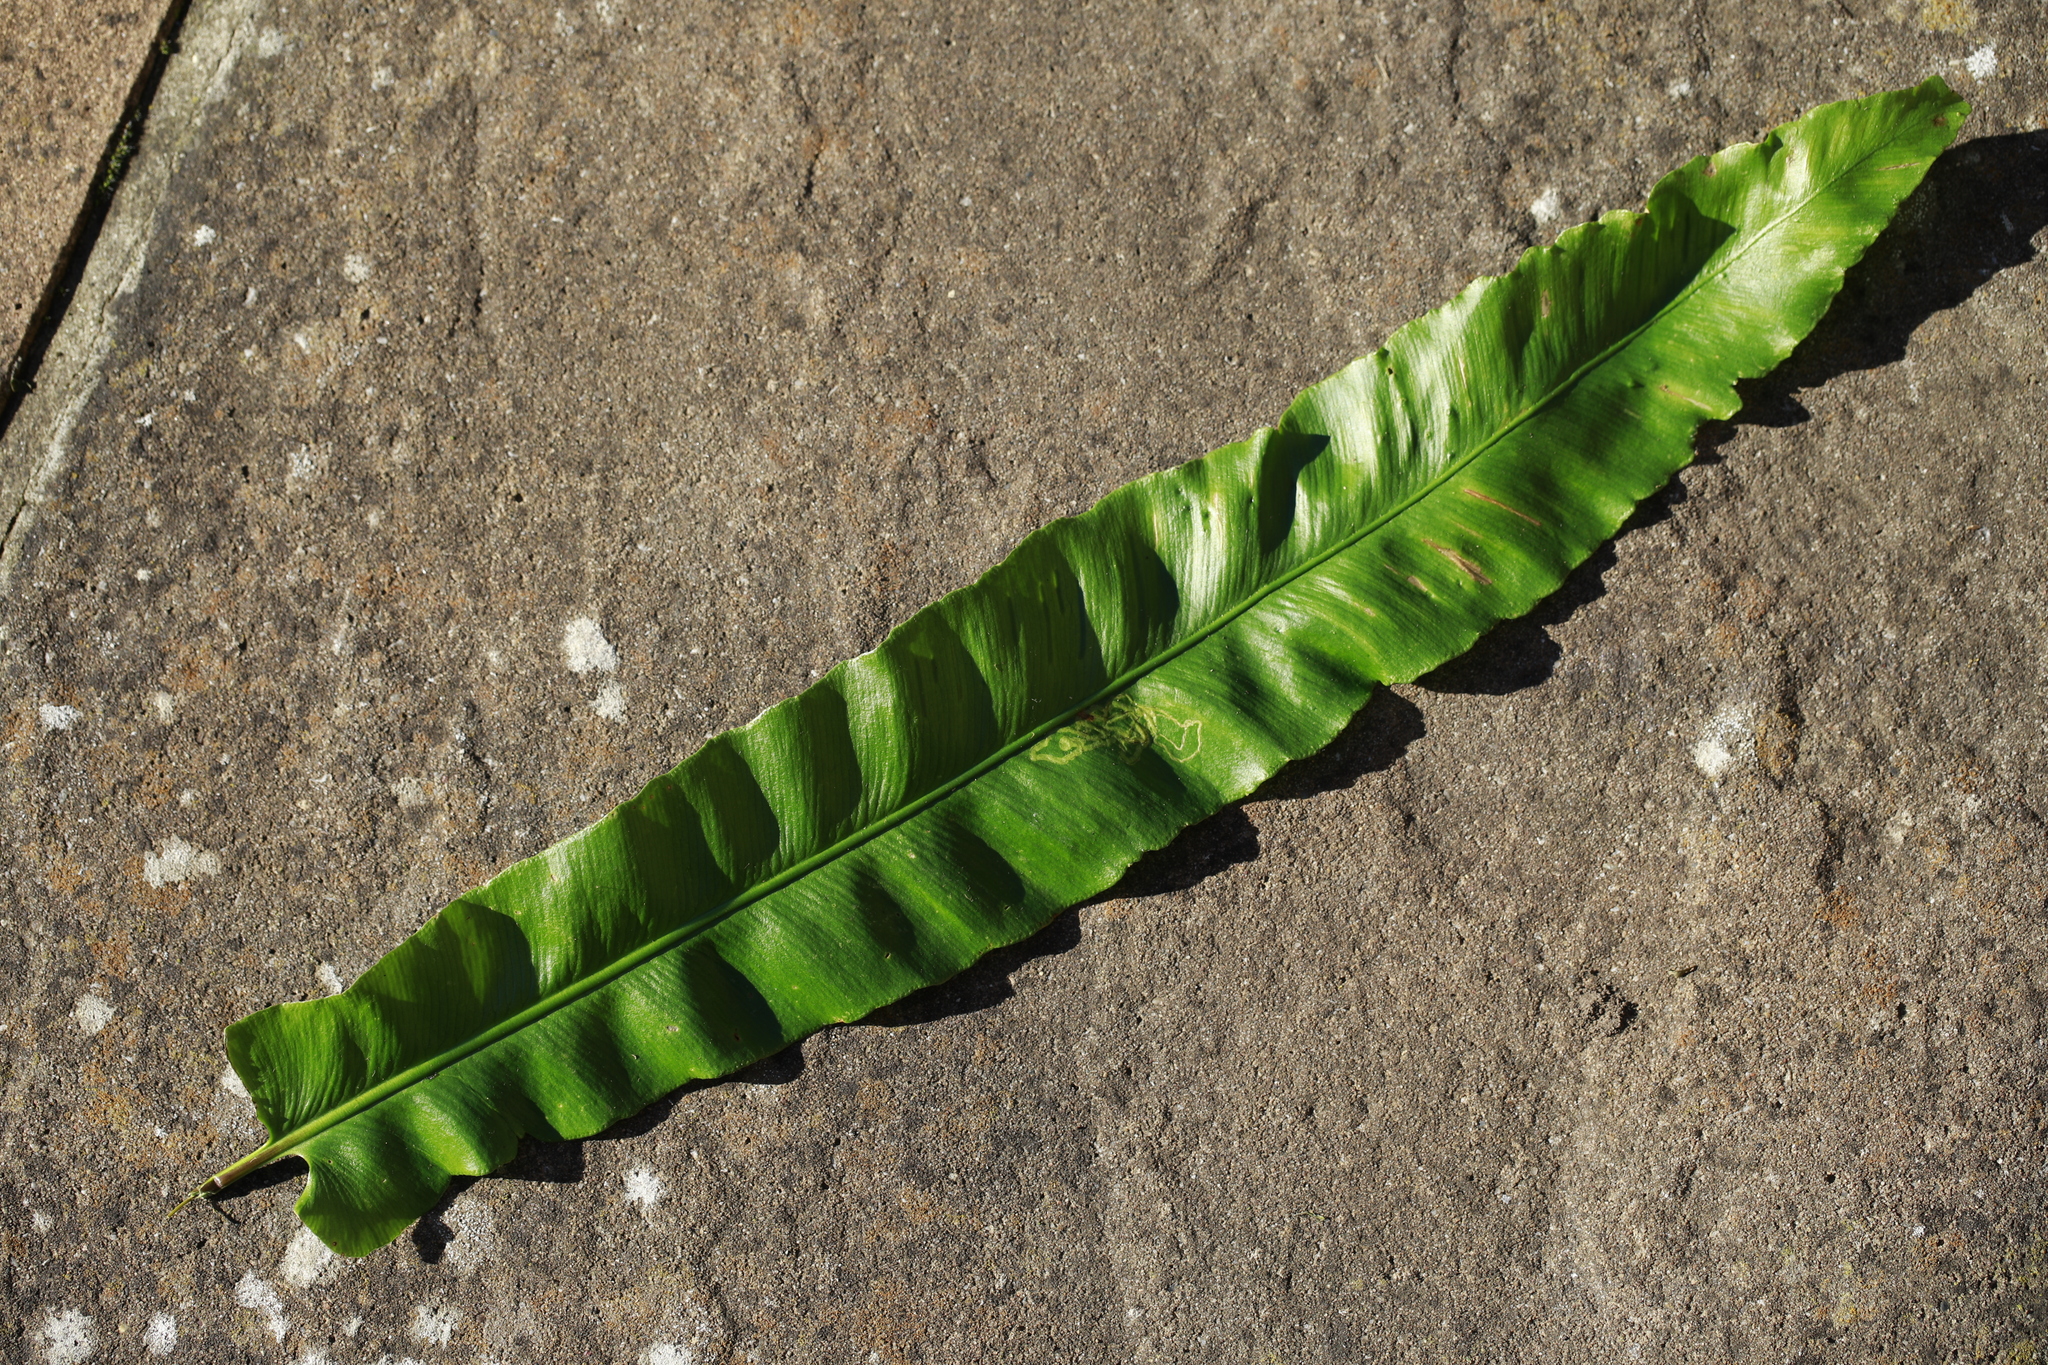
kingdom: Plantae
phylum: Tracheophyta
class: Polypodiopsida
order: Polypodiales
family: Aspleniaceae
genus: Asplenium
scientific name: Asplenium scolopendrium
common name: Hart's-tongue fern
